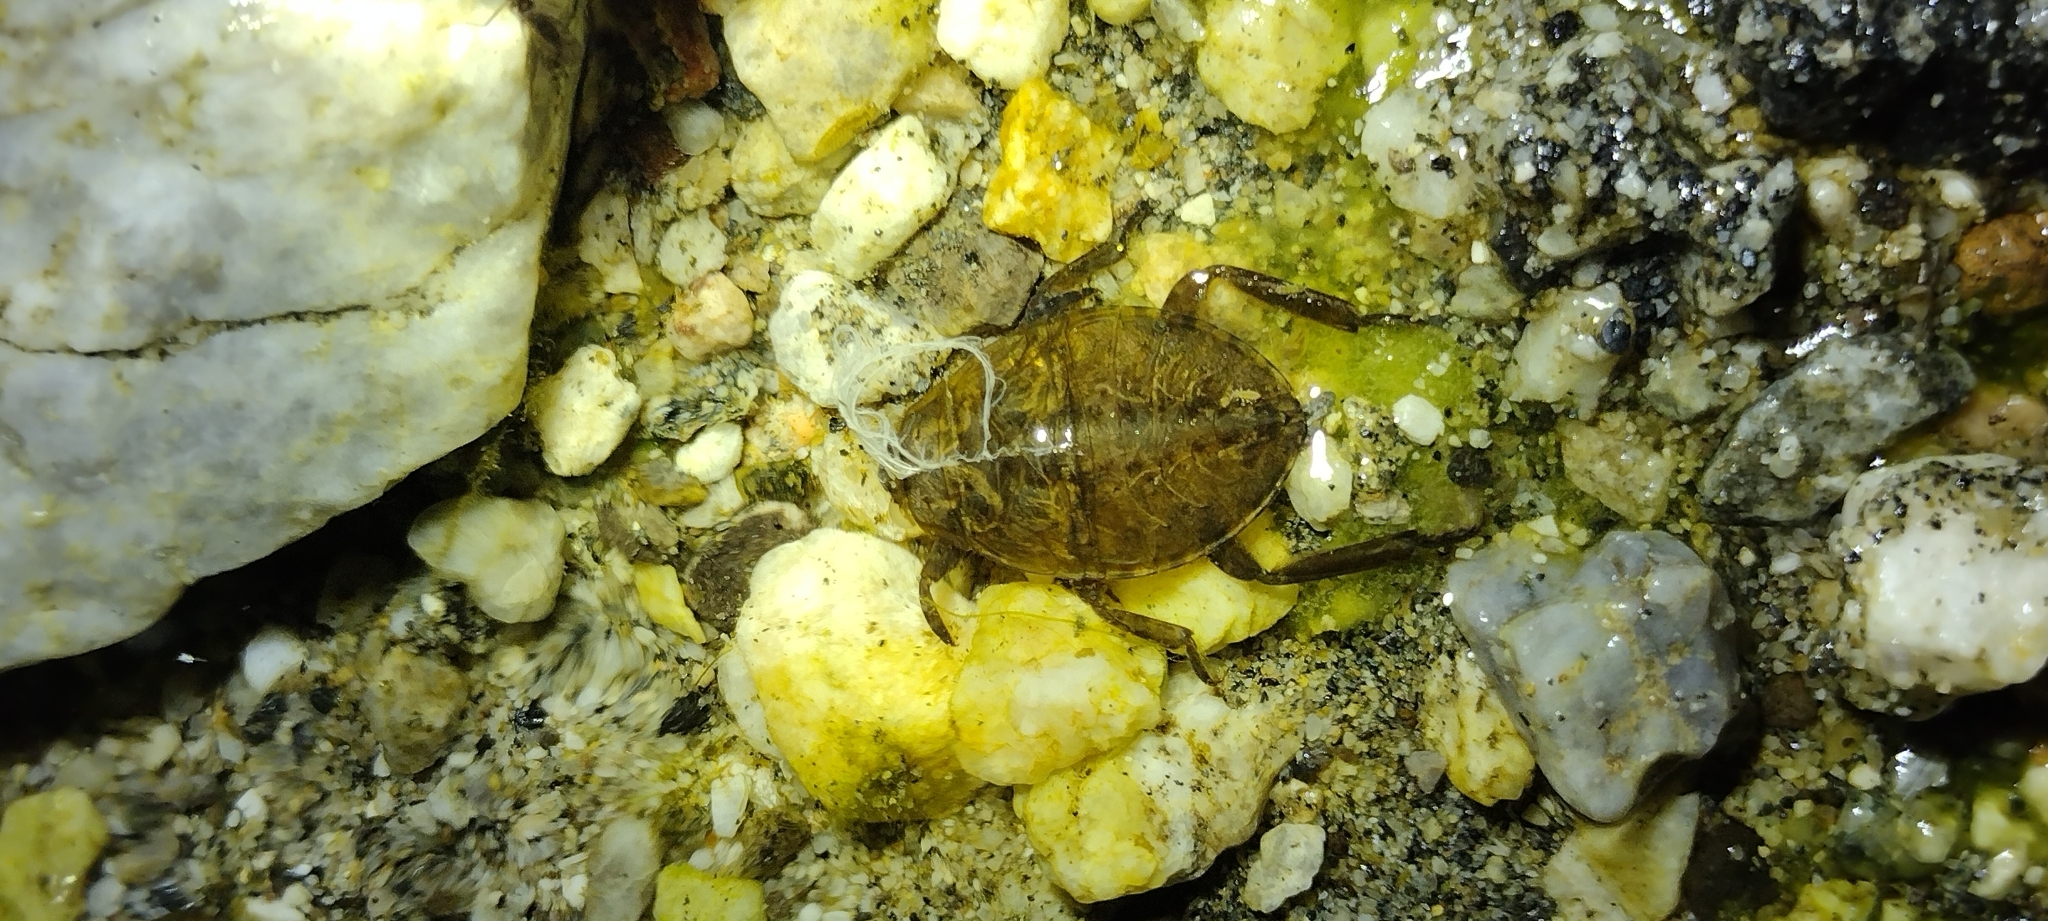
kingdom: Animalia
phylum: Arthropoda
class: Insecta
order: Hemiptera
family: Belostomatidae
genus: Abedus
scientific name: Abedus indentatus
